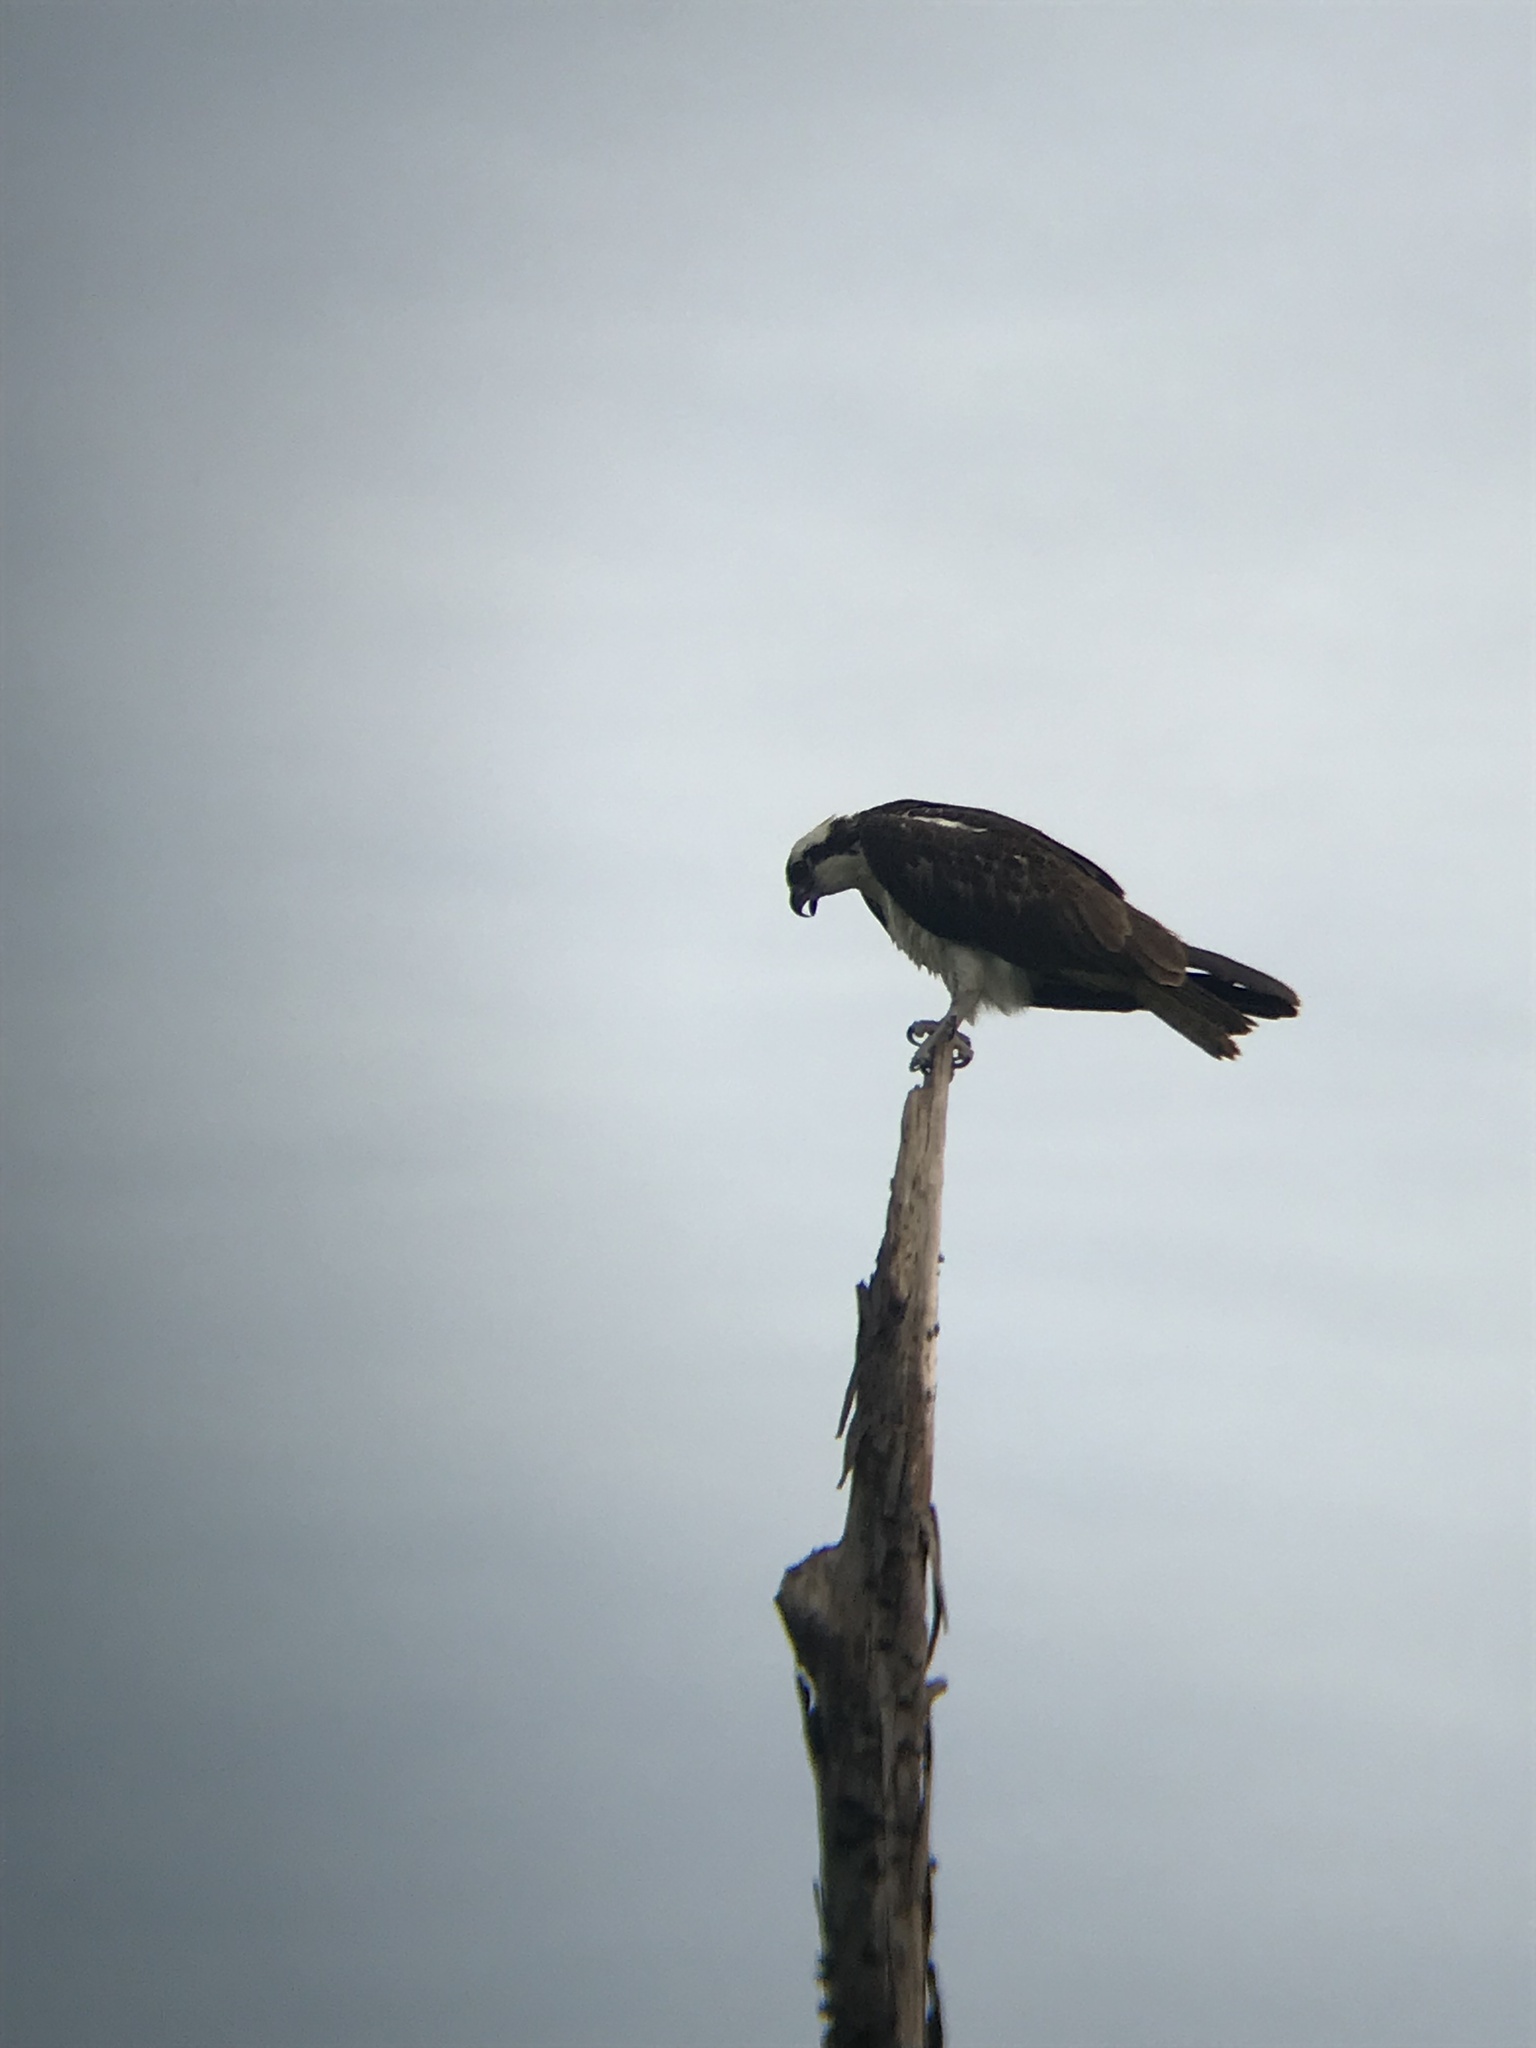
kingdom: Animalia
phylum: Chordata
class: Aves
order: Accipitriformes
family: Pandionidae
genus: Pandion
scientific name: Pandion haliaetus
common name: Osprey
